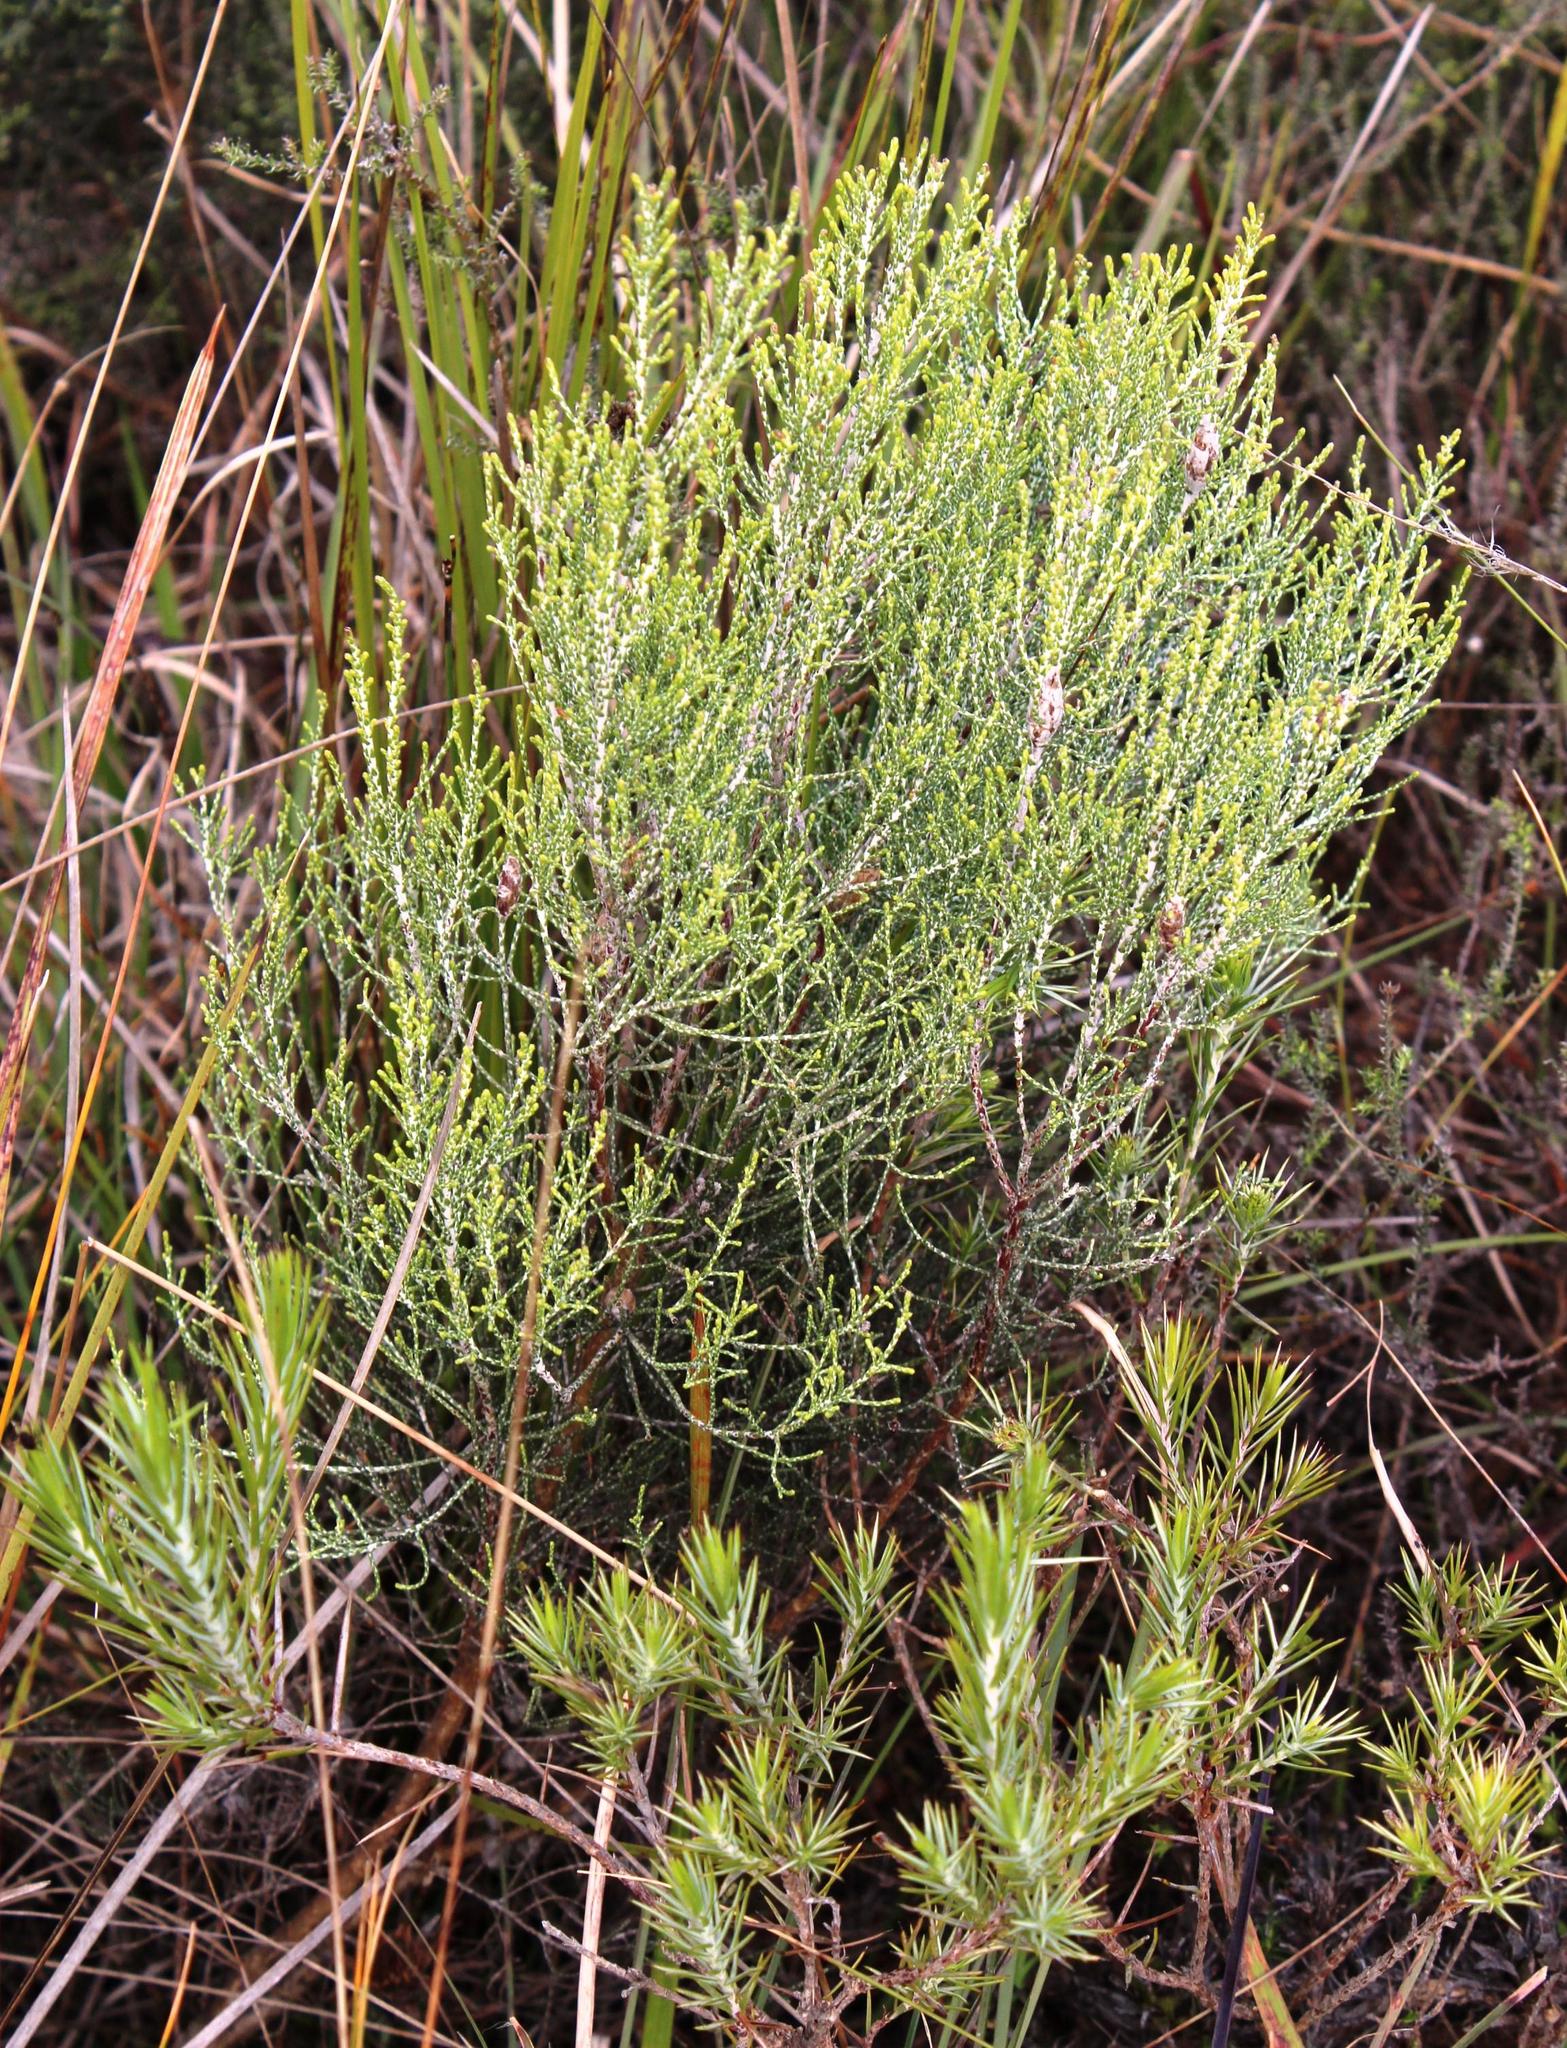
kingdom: Plantae
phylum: Tracheophyta
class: Magnoliopsida
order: Asterales
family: Asteraceae
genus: Dicerothamnus
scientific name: Dicerothamnus rhinocerotis
